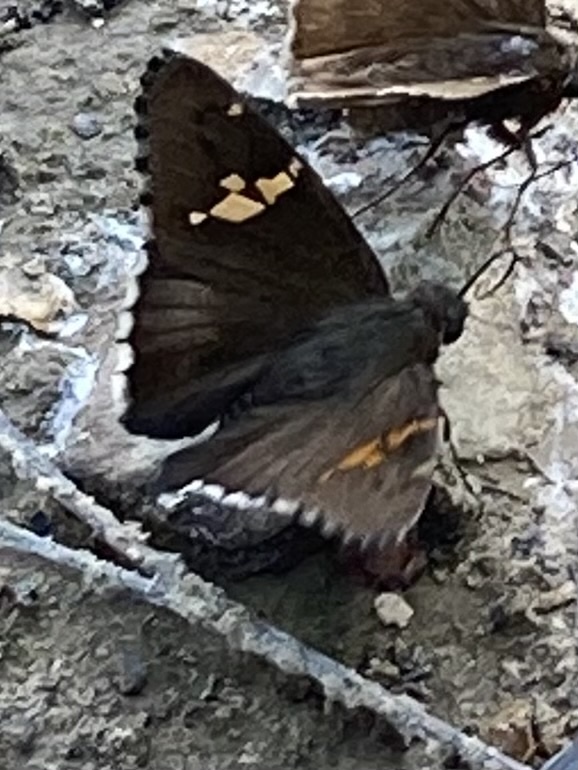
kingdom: Animalia
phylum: Arthropoda
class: Insecta
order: Lepidoptera
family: Hesperiidae
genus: Thorybes
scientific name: Thorybes lyciades
